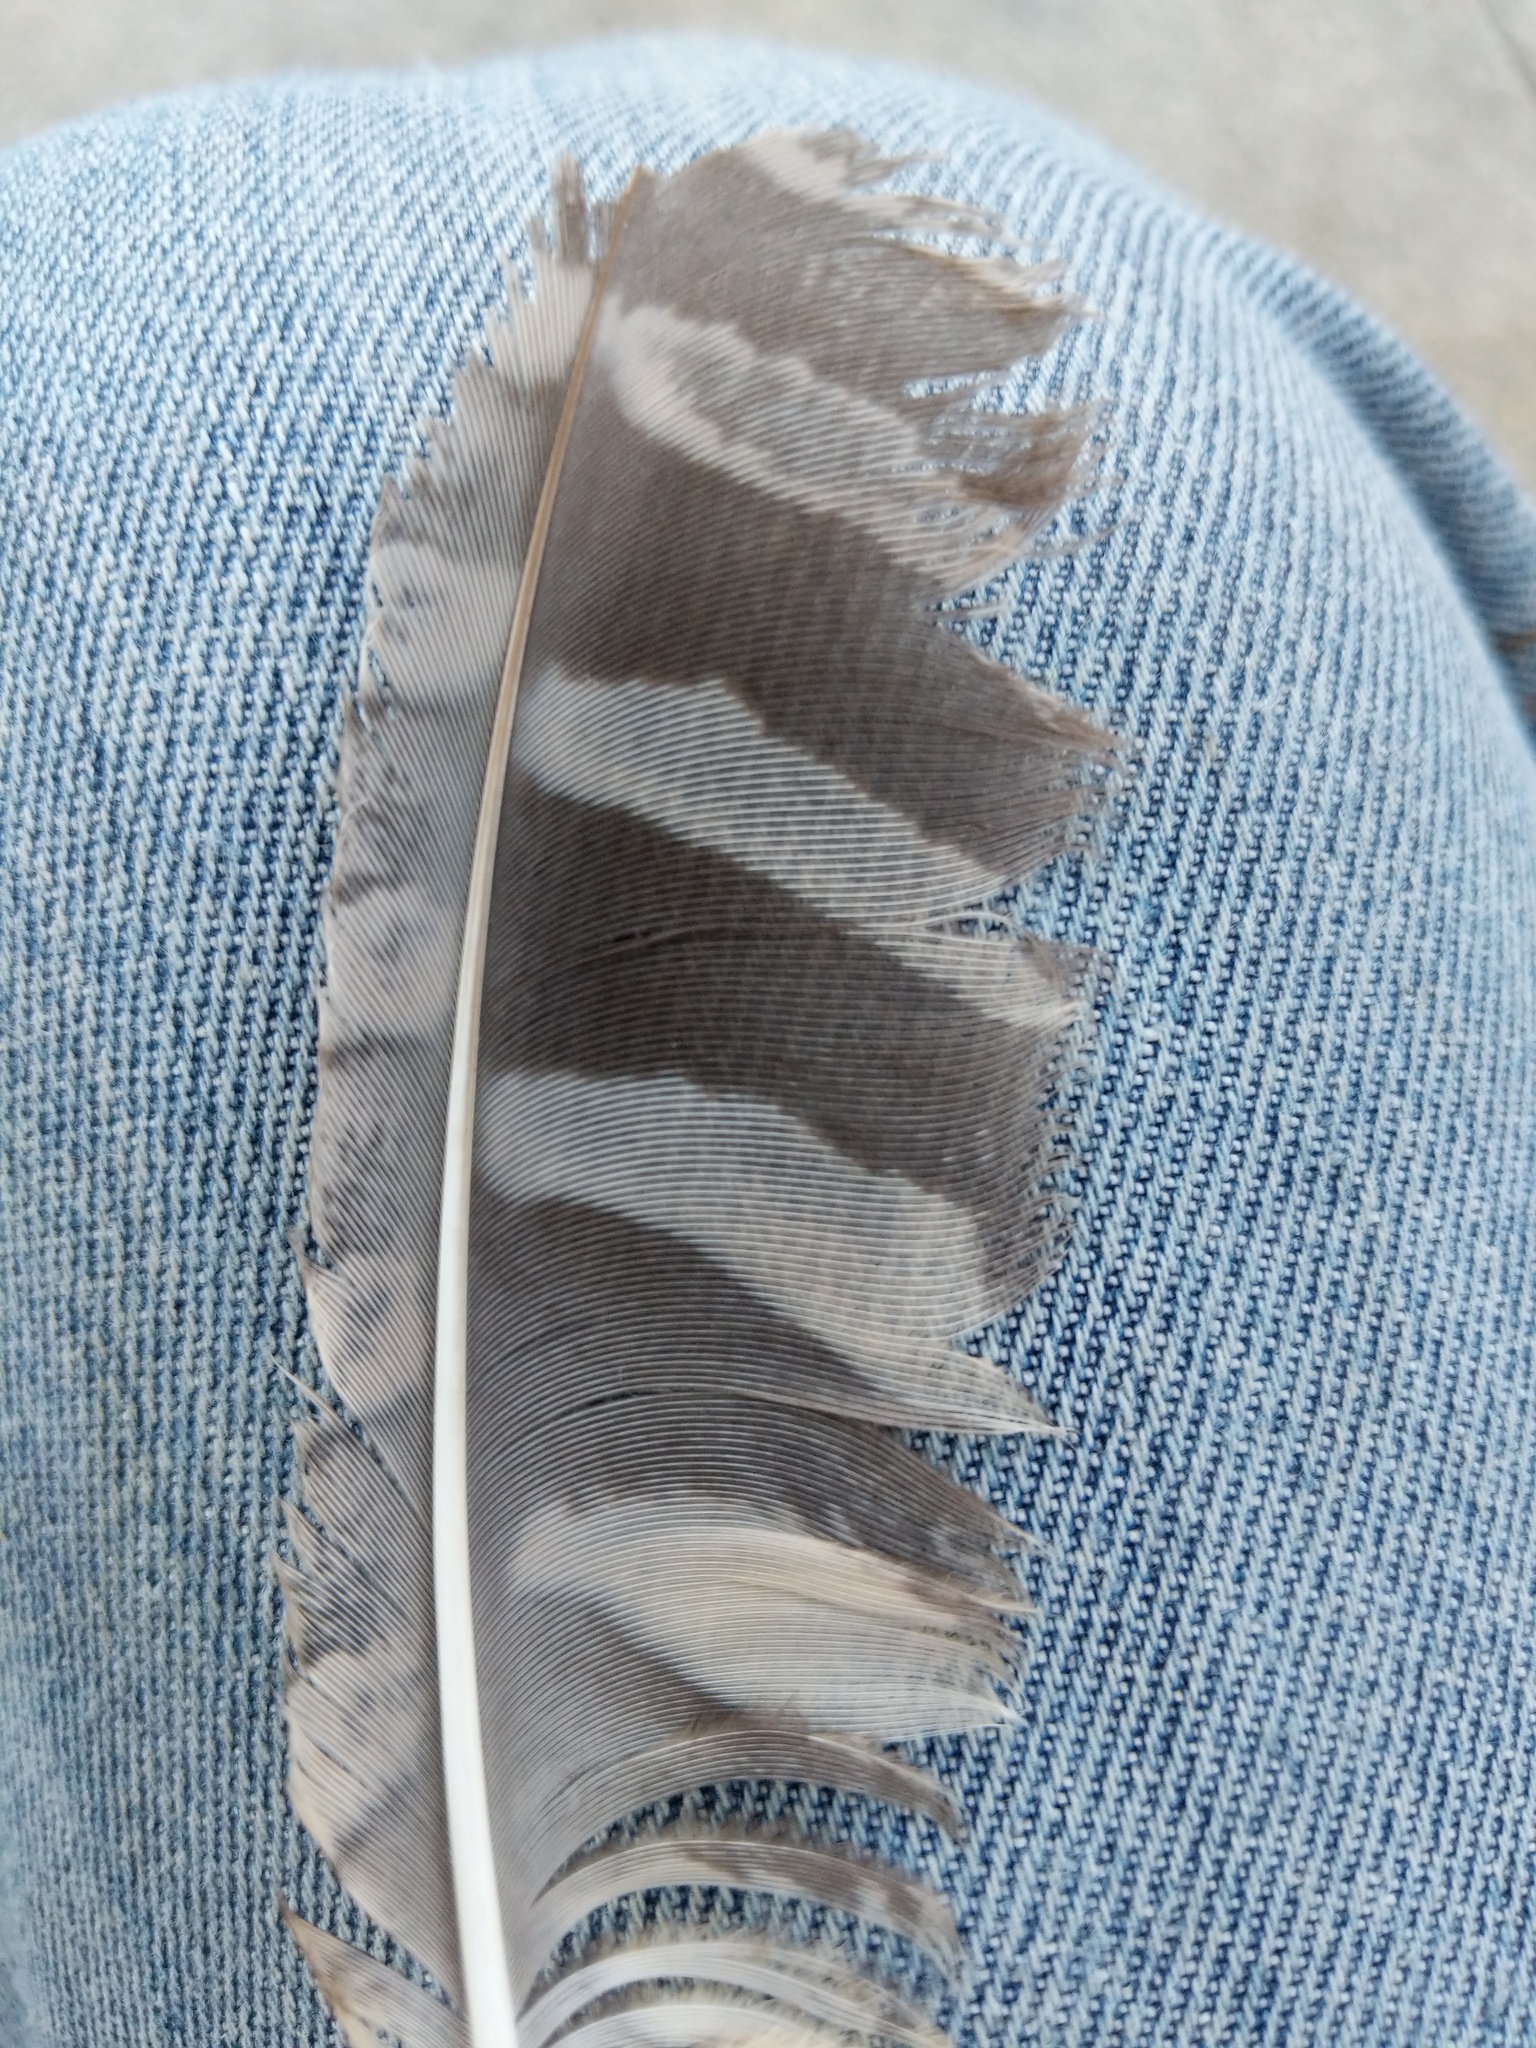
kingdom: Animalia
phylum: Chordata
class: Aves
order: Strigiformes
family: Strigidae
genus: Megascops
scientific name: Megascops kennicottii
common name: Western screech-owl
